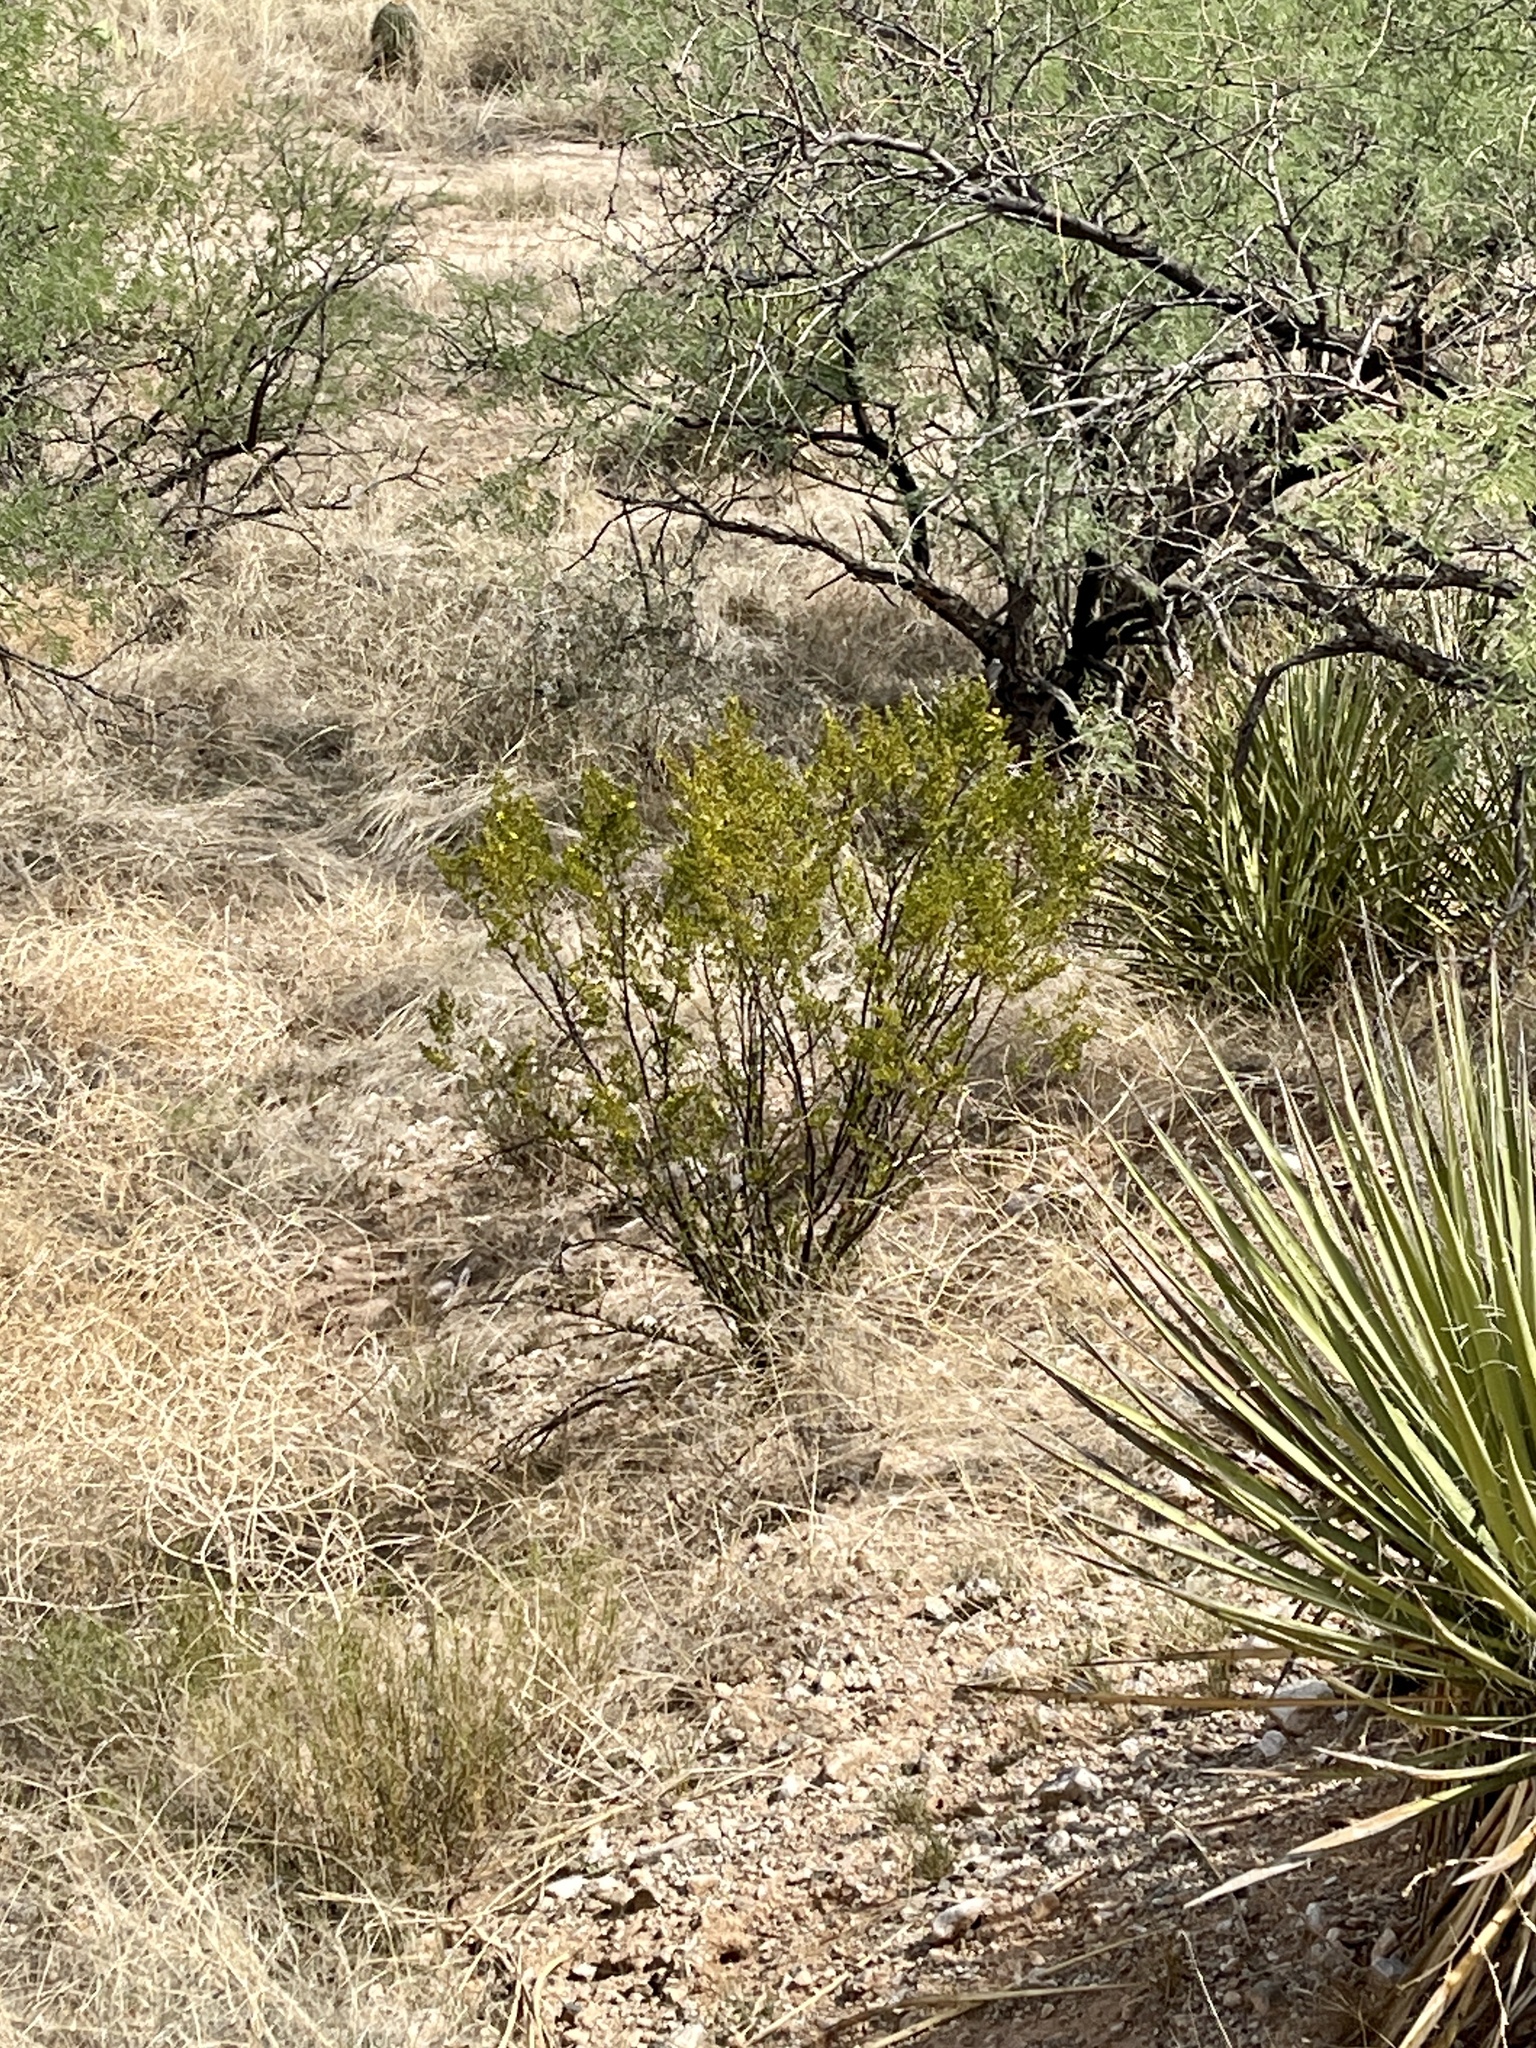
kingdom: Plantae
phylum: Tracheophyta
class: Magnoliopsida
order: Zygophyllales
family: Zygophyllaceae
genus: Larrea
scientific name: Larrea tridentata
